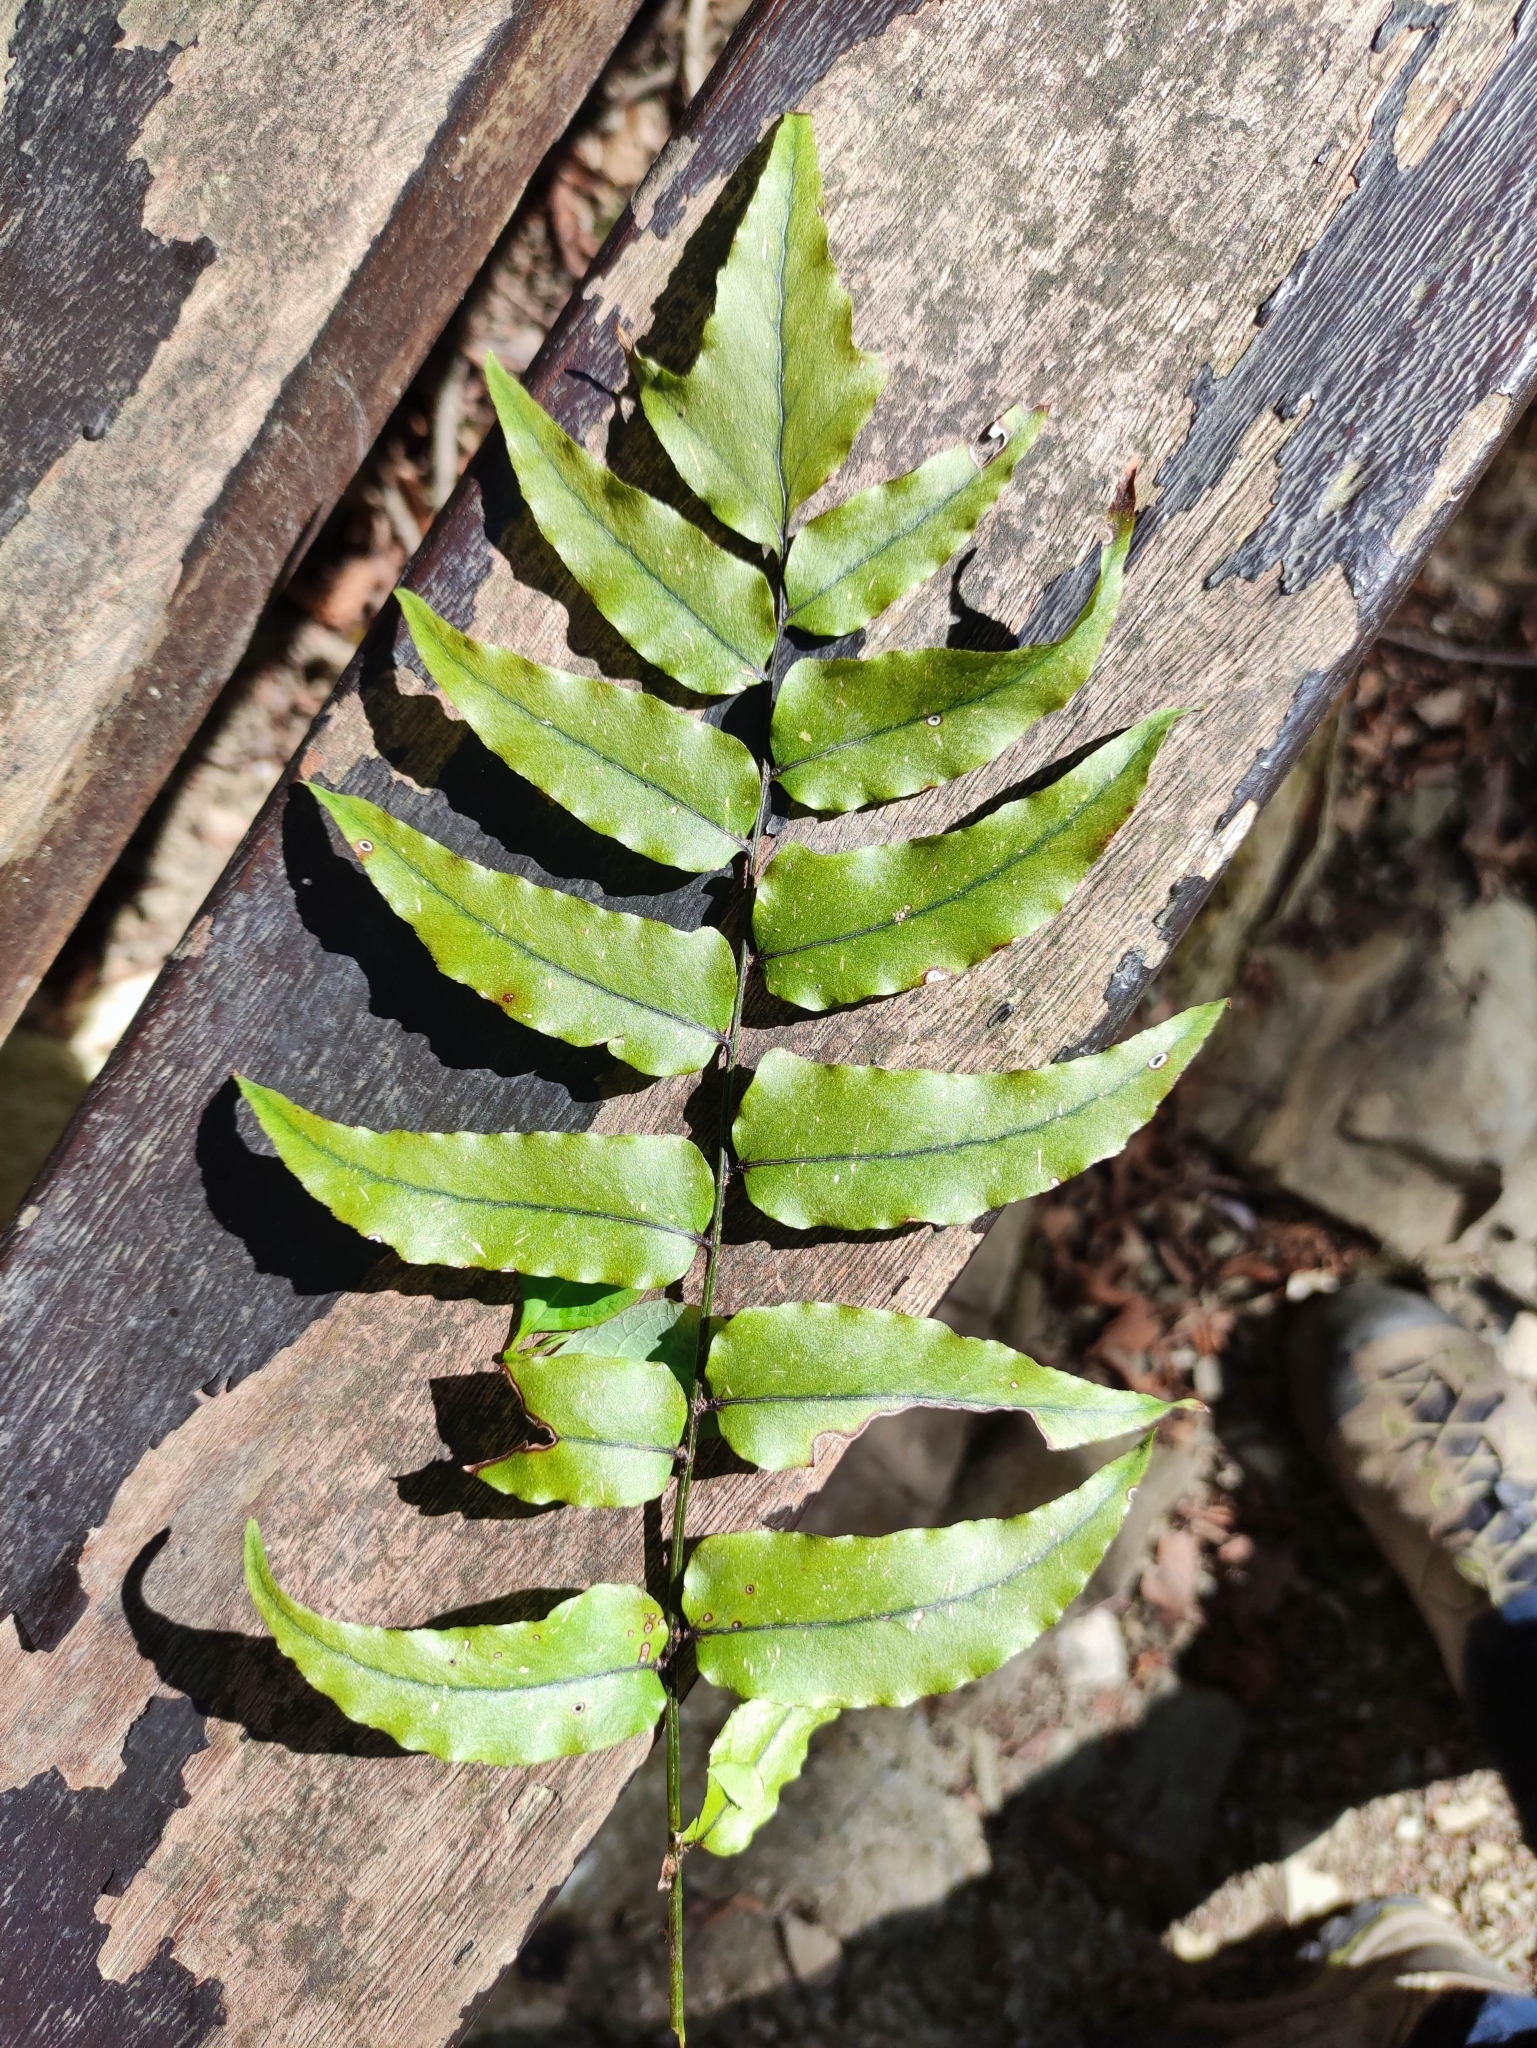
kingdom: Plantae
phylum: Tracheophyta
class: Polypodiopsida
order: Polypodiales
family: Dryopteridaceae
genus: Cyrtomium
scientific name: Cyrtomium fortunei
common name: Asian netvein hollyfern
